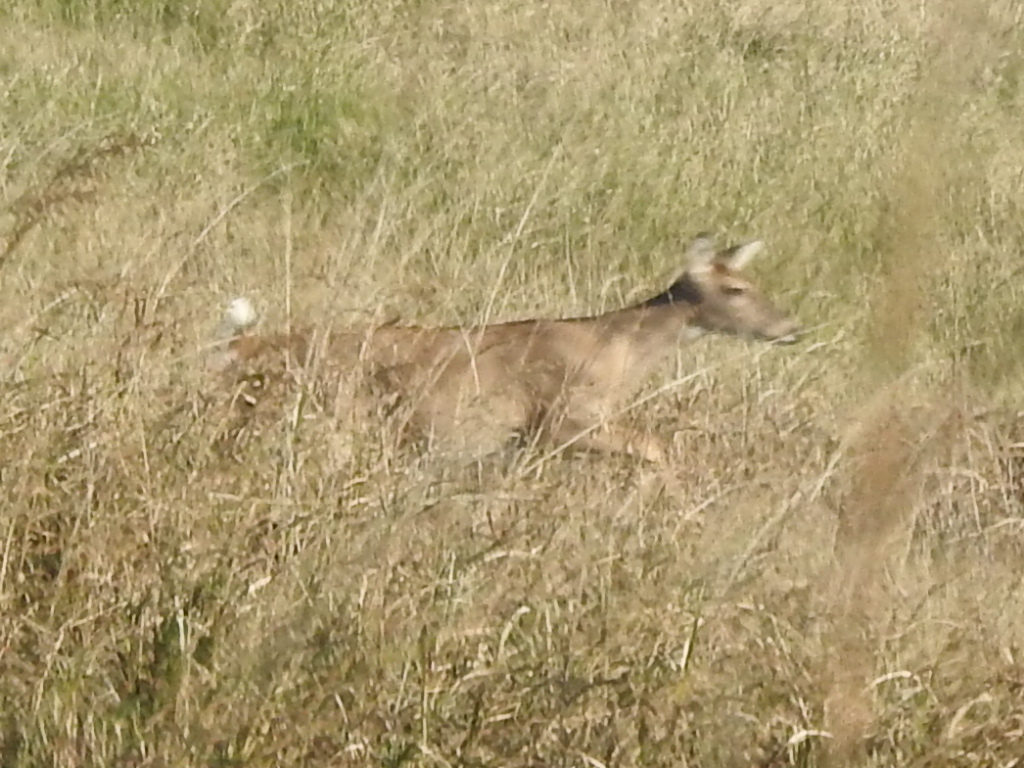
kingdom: Animalia
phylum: Chordata
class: Mammalia
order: Artiodactyla
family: Cervidae
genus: Odocoileus
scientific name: Odocoileus virginianus
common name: White-tailed deer
